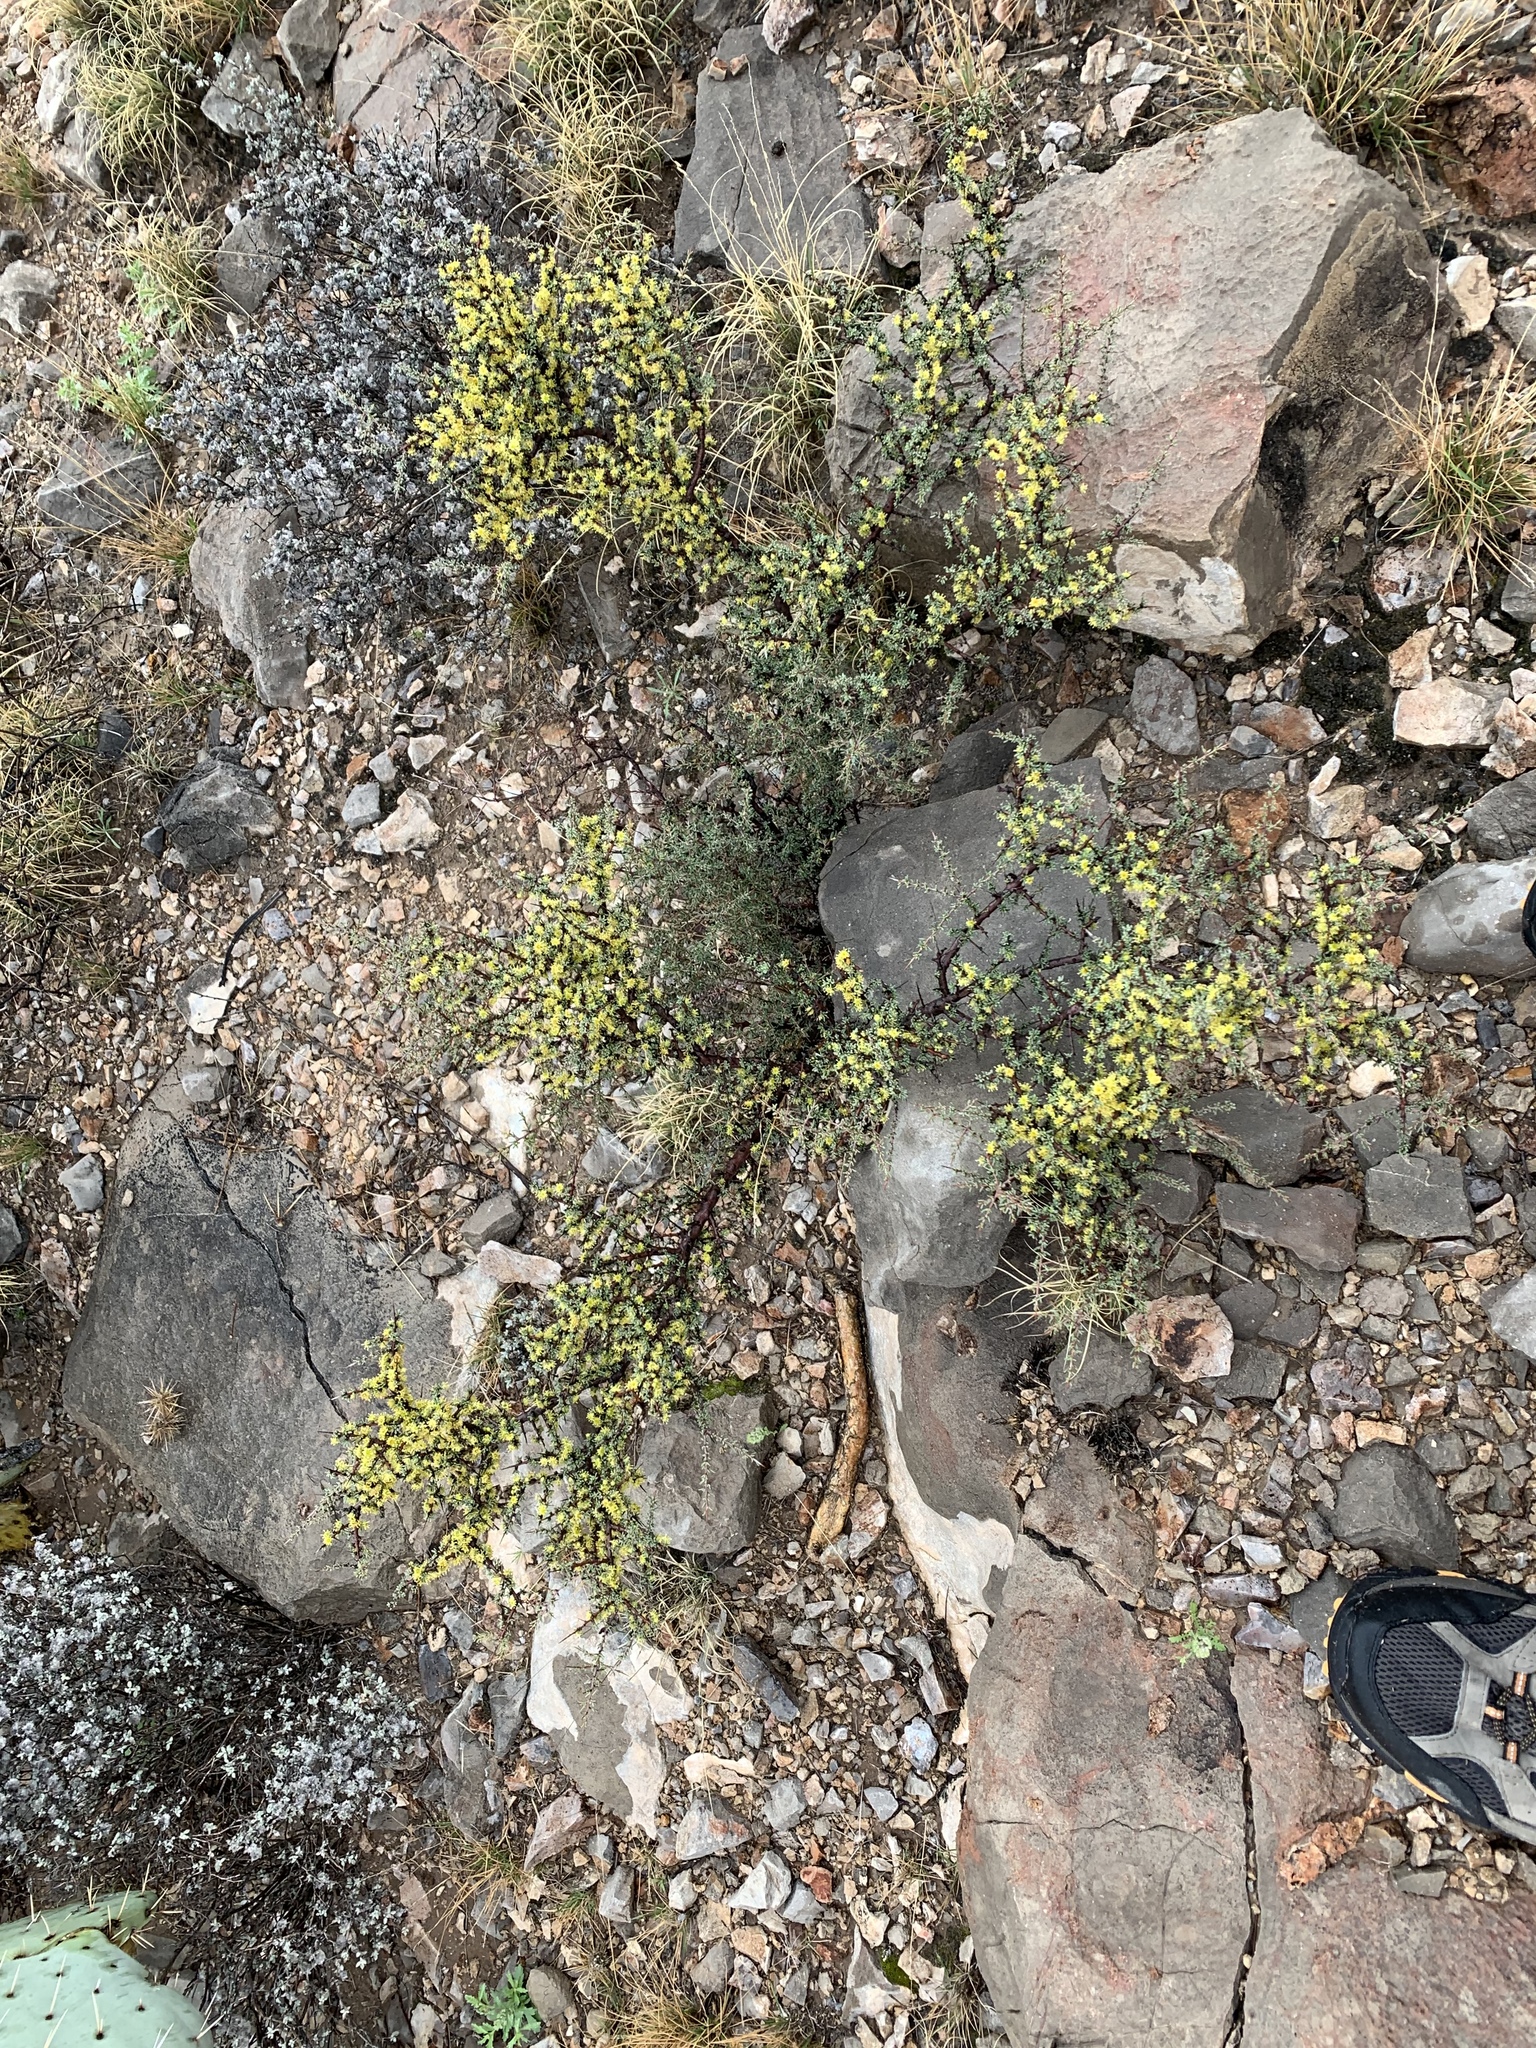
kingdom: Plantae
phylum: Tracheophyta
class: Magnoliopsida
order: Rosales
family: Rhamnaceae
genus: Condalia
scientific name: Condalia ericoides
